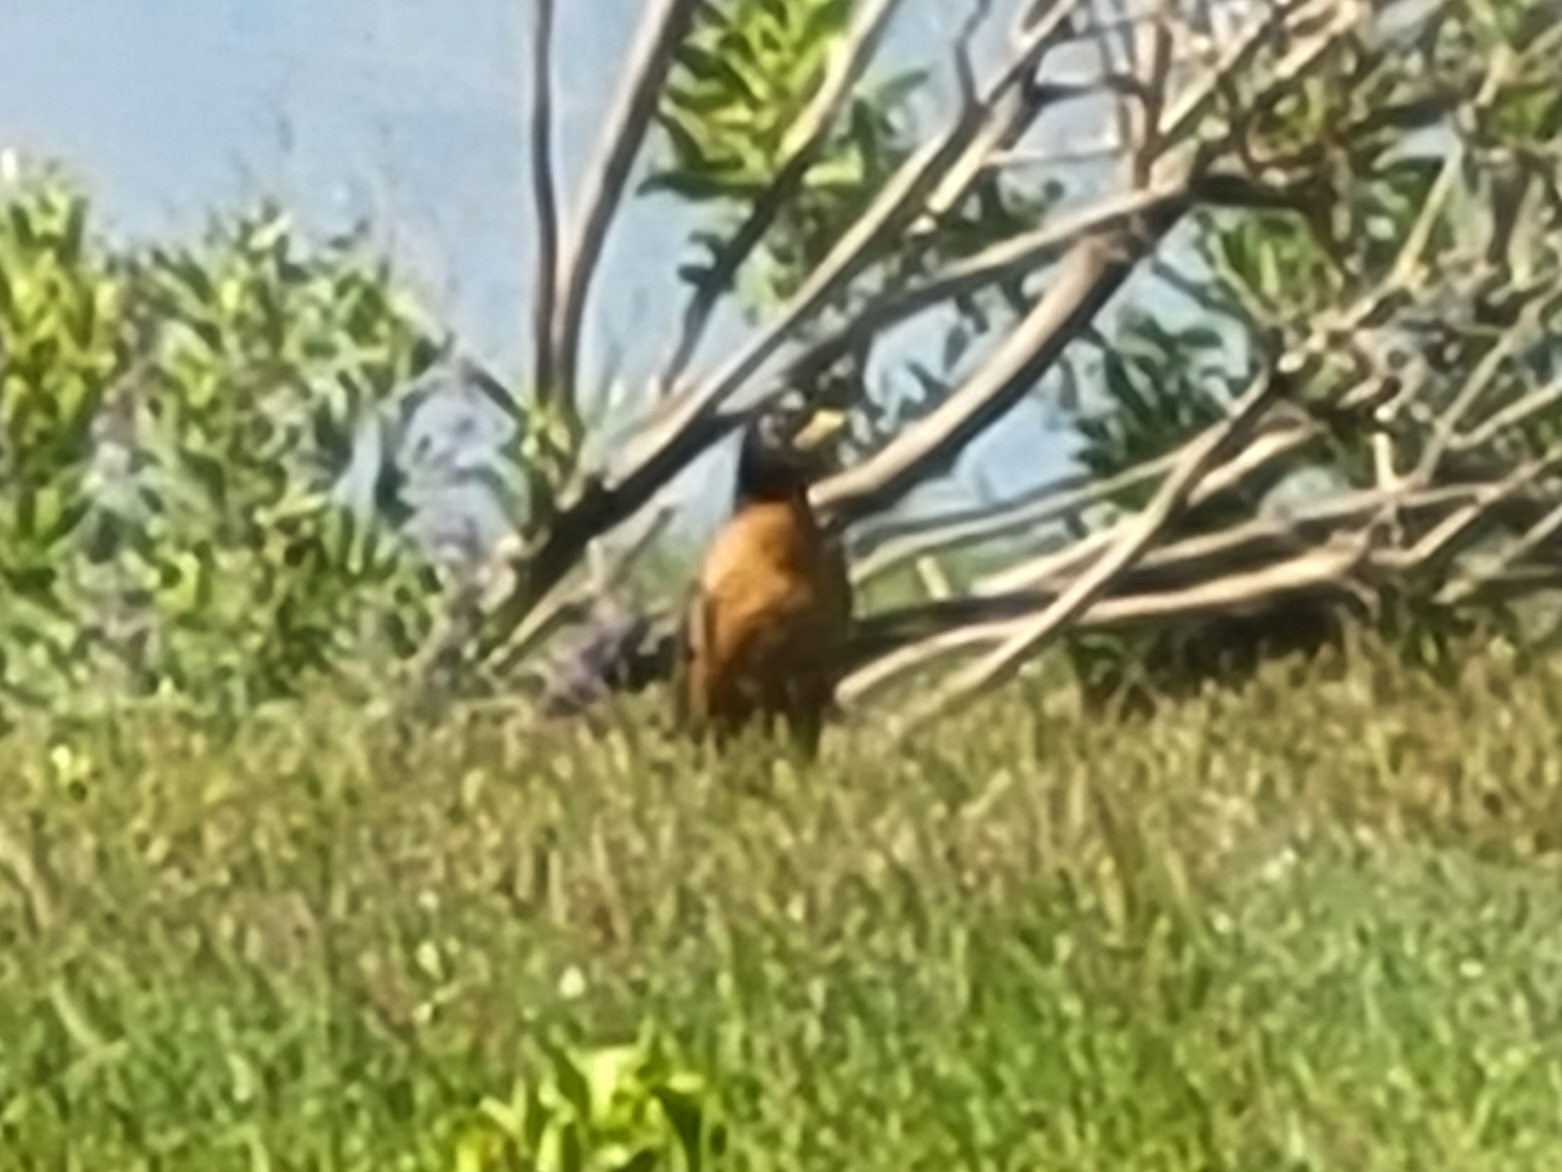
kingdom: Animalia
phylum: Chordata
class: Aves
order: Passeriformes
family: Turdidae
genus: Turdus
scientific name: Turdus migratorius
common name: American robin
